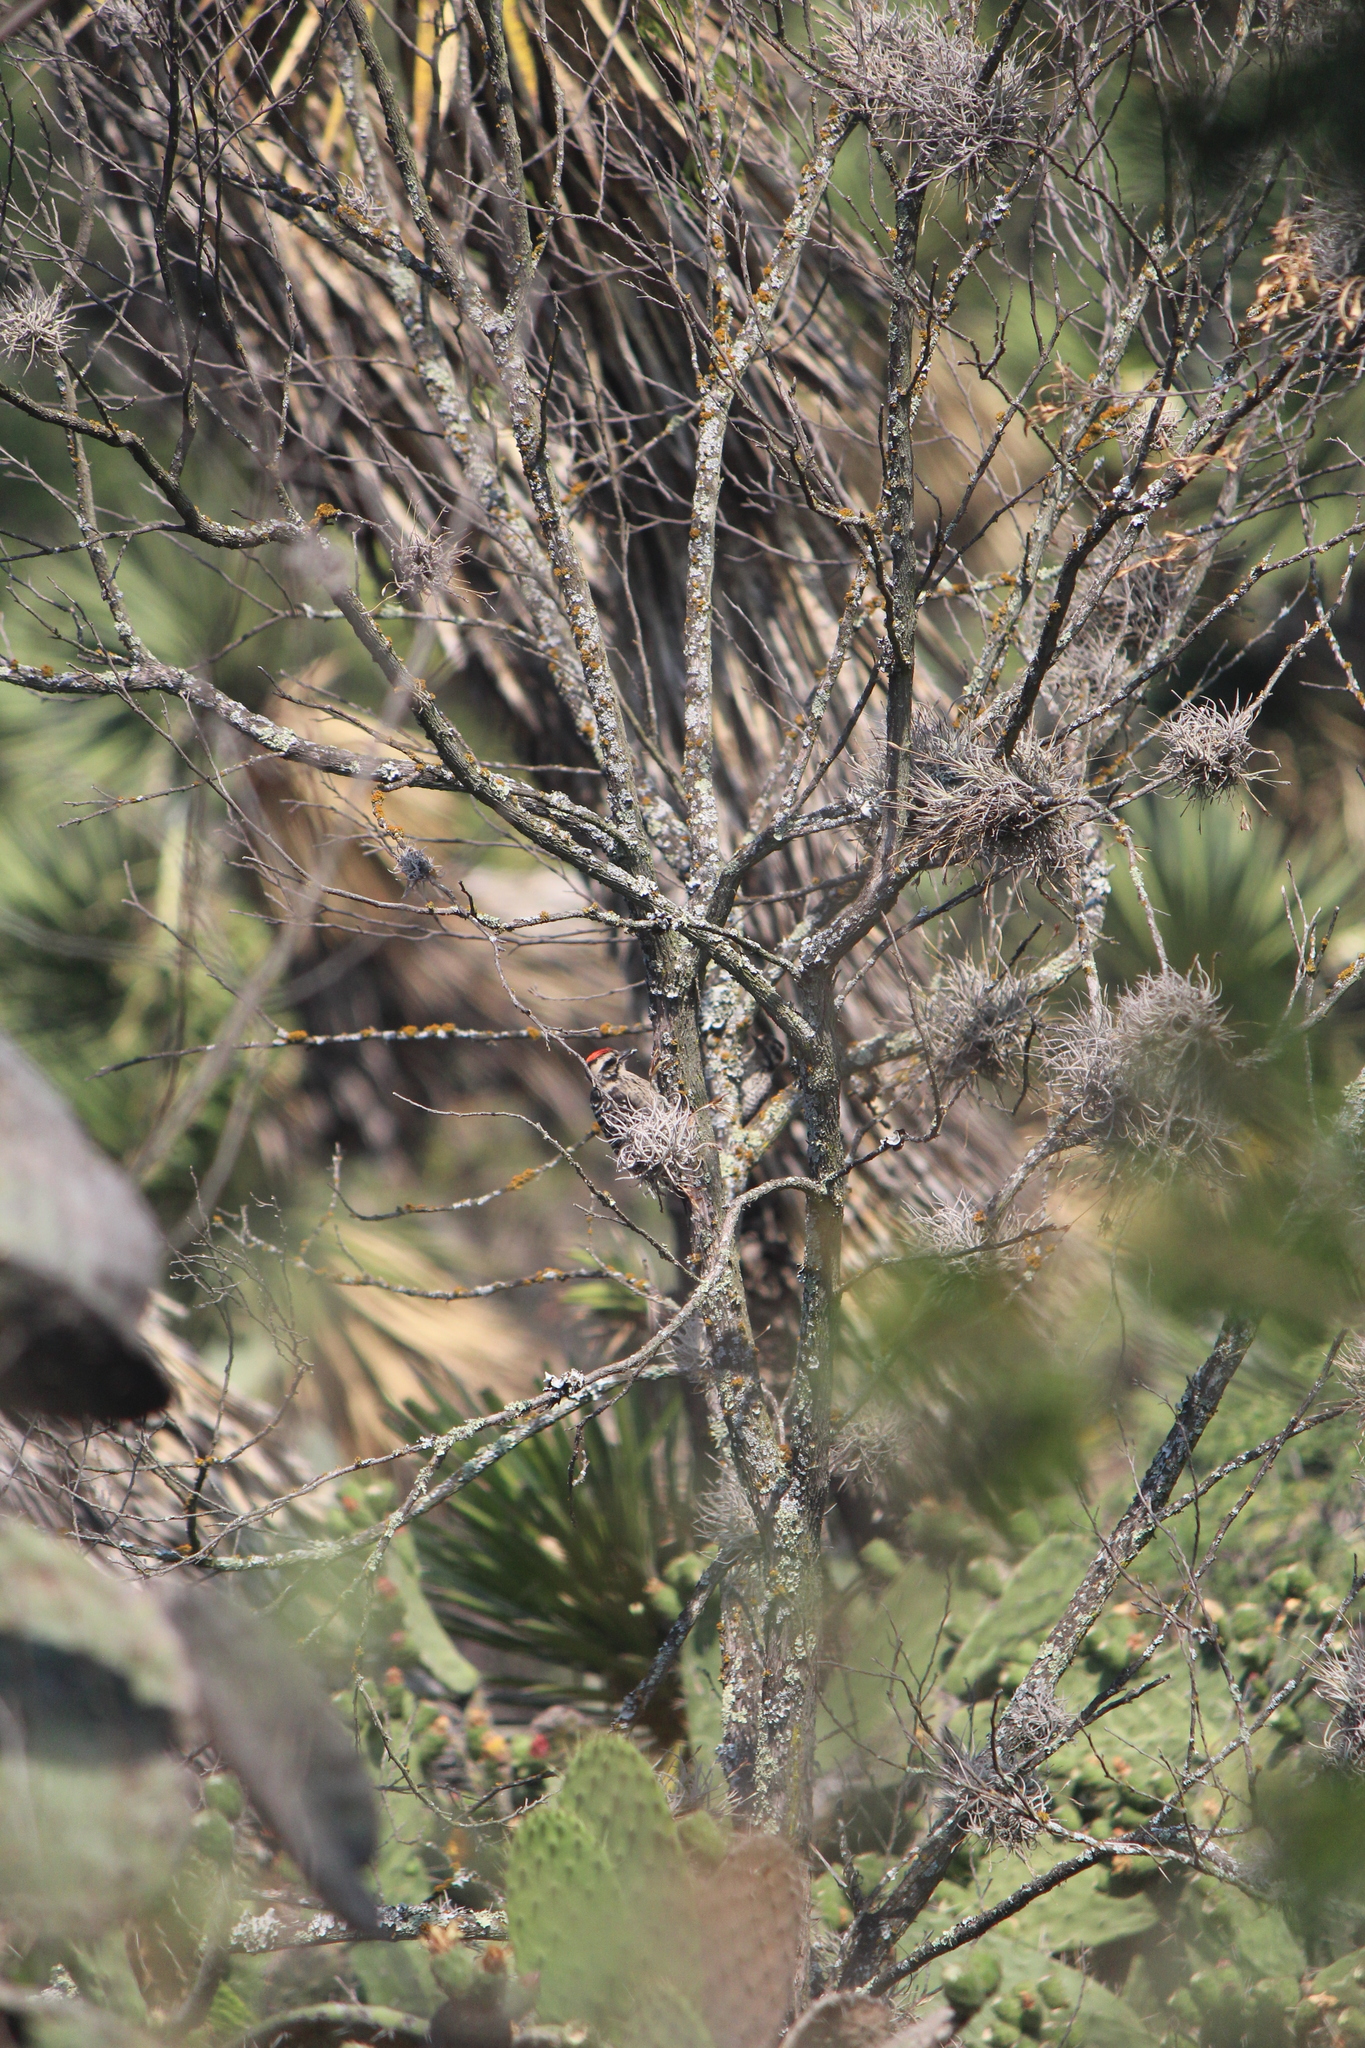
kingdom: Animalia
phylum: Chordata
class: Aves
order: Piciformes
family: Picidae
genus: Dryobates
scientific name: Dryobates scalaris
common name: Ladder-backed woodpecker
